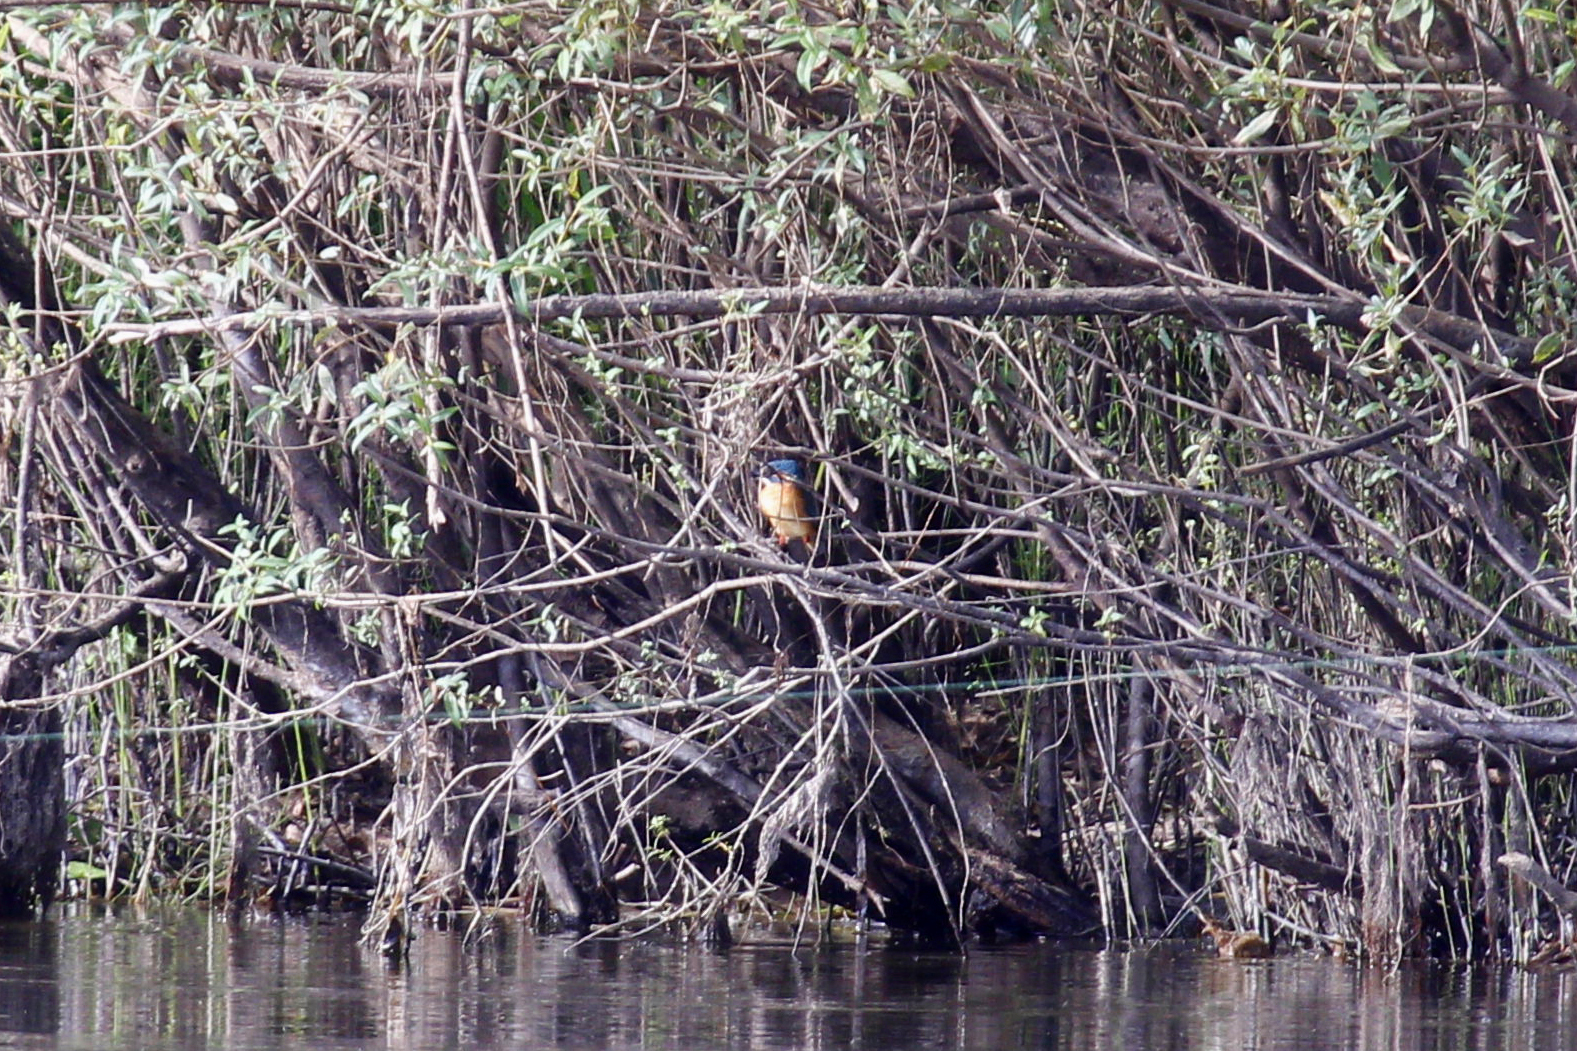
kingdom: Animalia
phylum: Chordata
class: Aves
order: Coraciiformes
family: Alcedinidae
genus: Alcedo
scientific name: Alcedo atthis
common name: Common kingfisher
